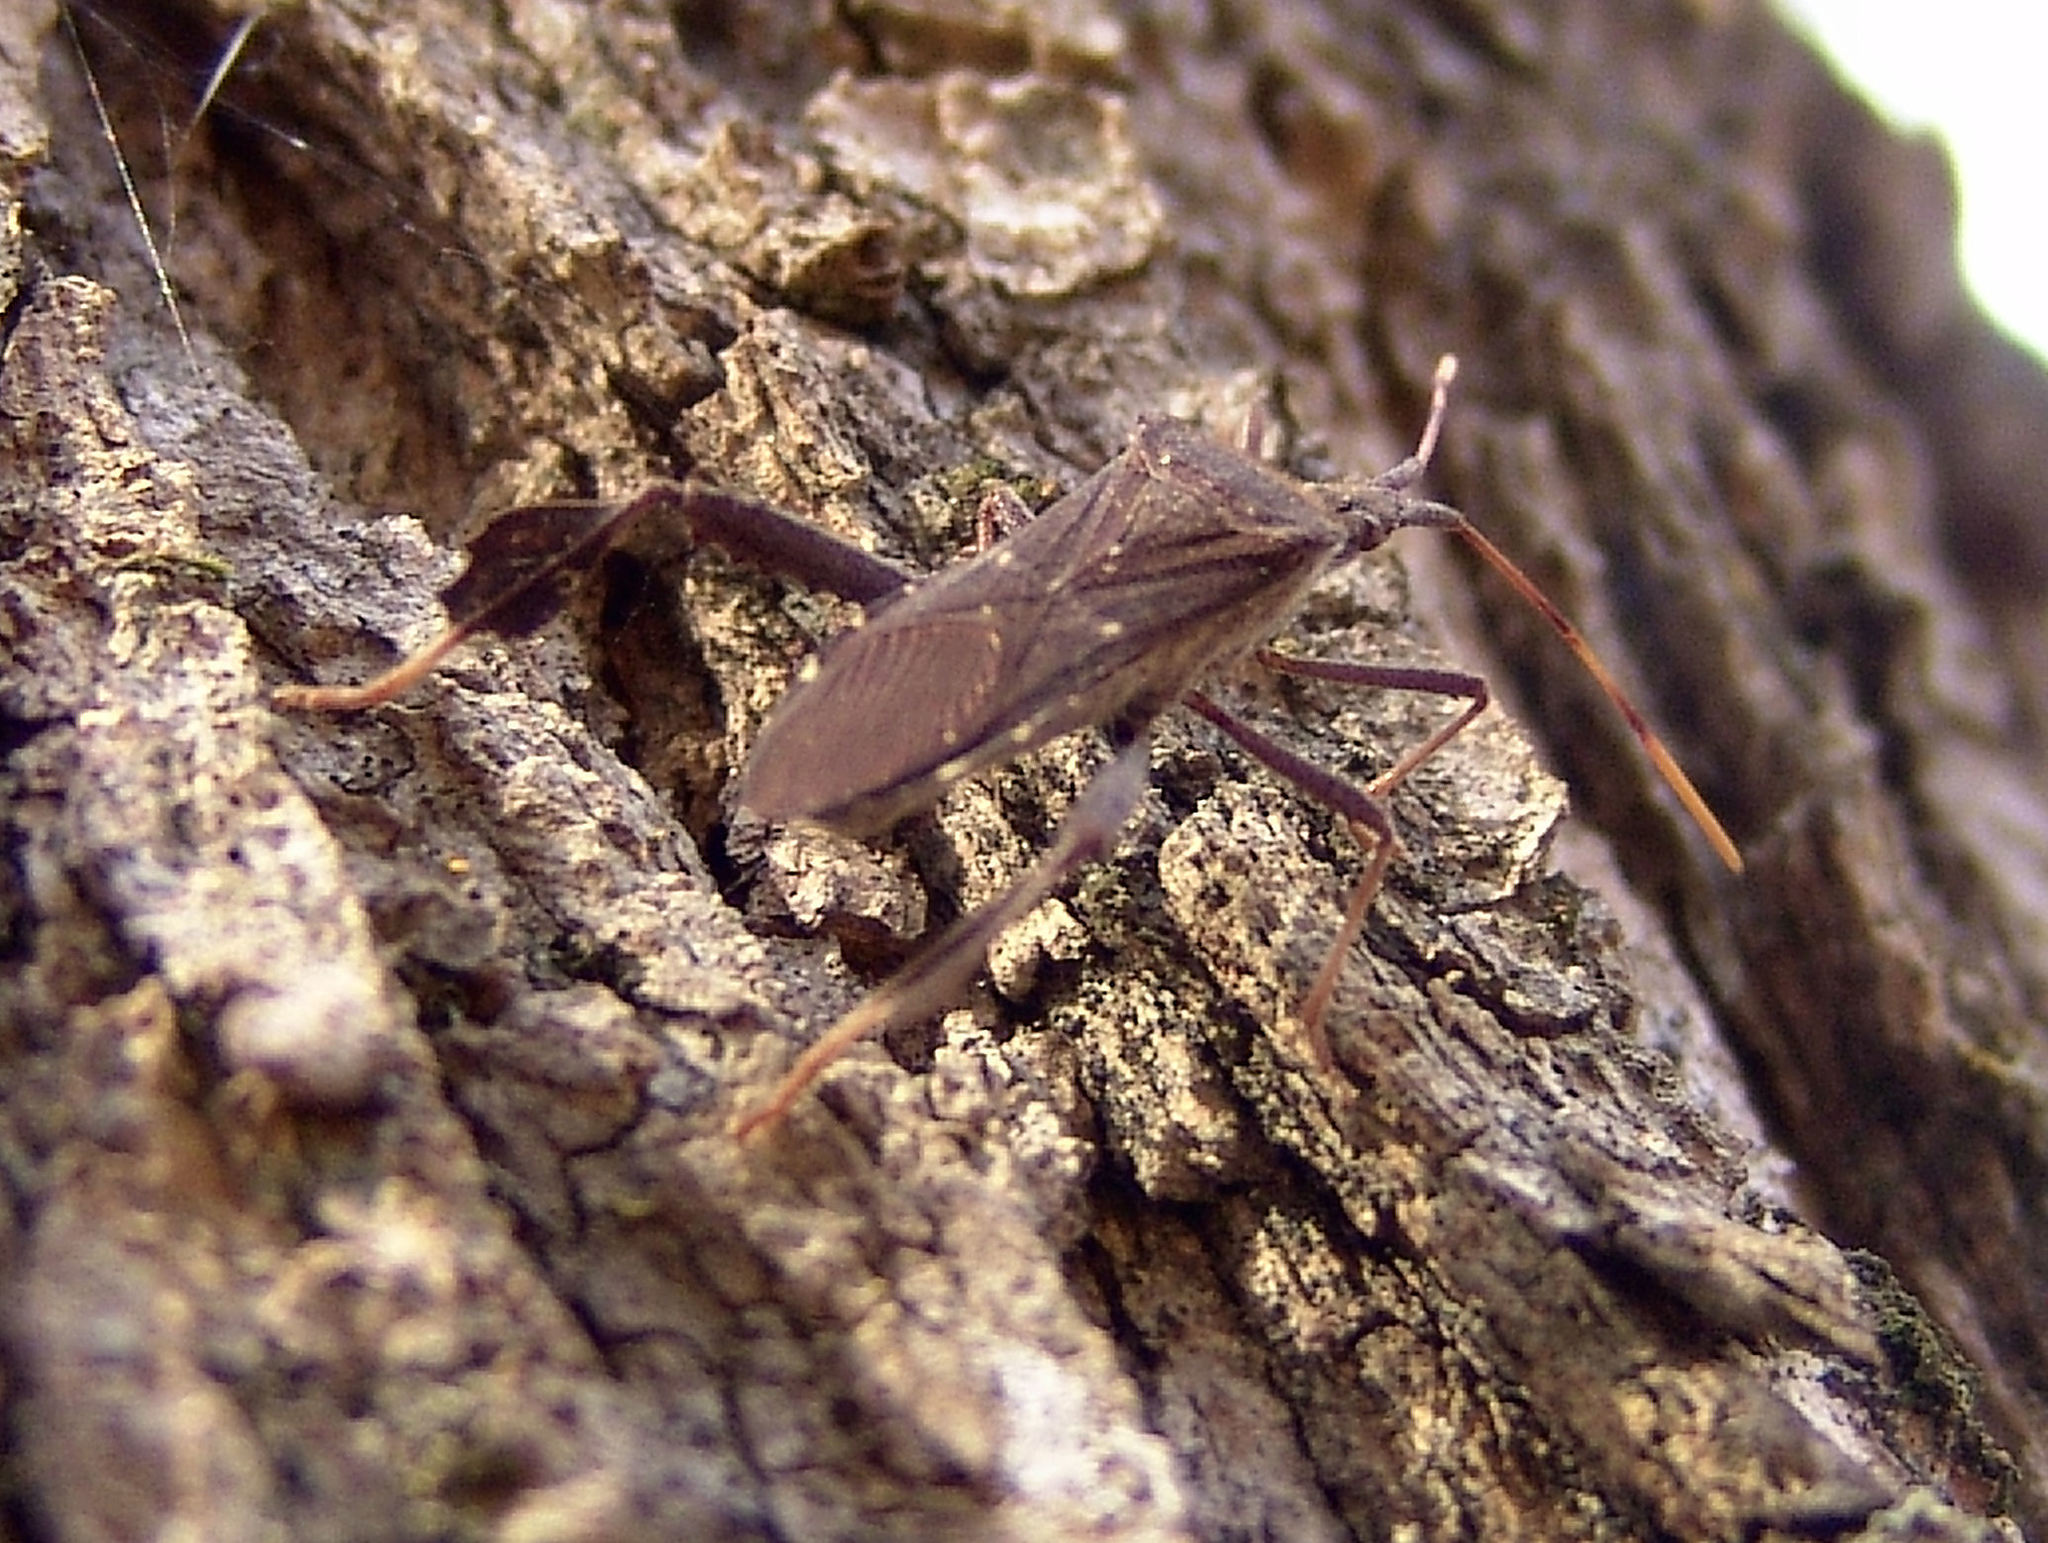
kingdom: Animalia
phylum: Arthropoda
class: Insecta
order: Hemiptera
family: Coreidae
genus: Leptoglossus
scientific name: Leptoglossus oppositus
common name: Northern leaf-footed bug
